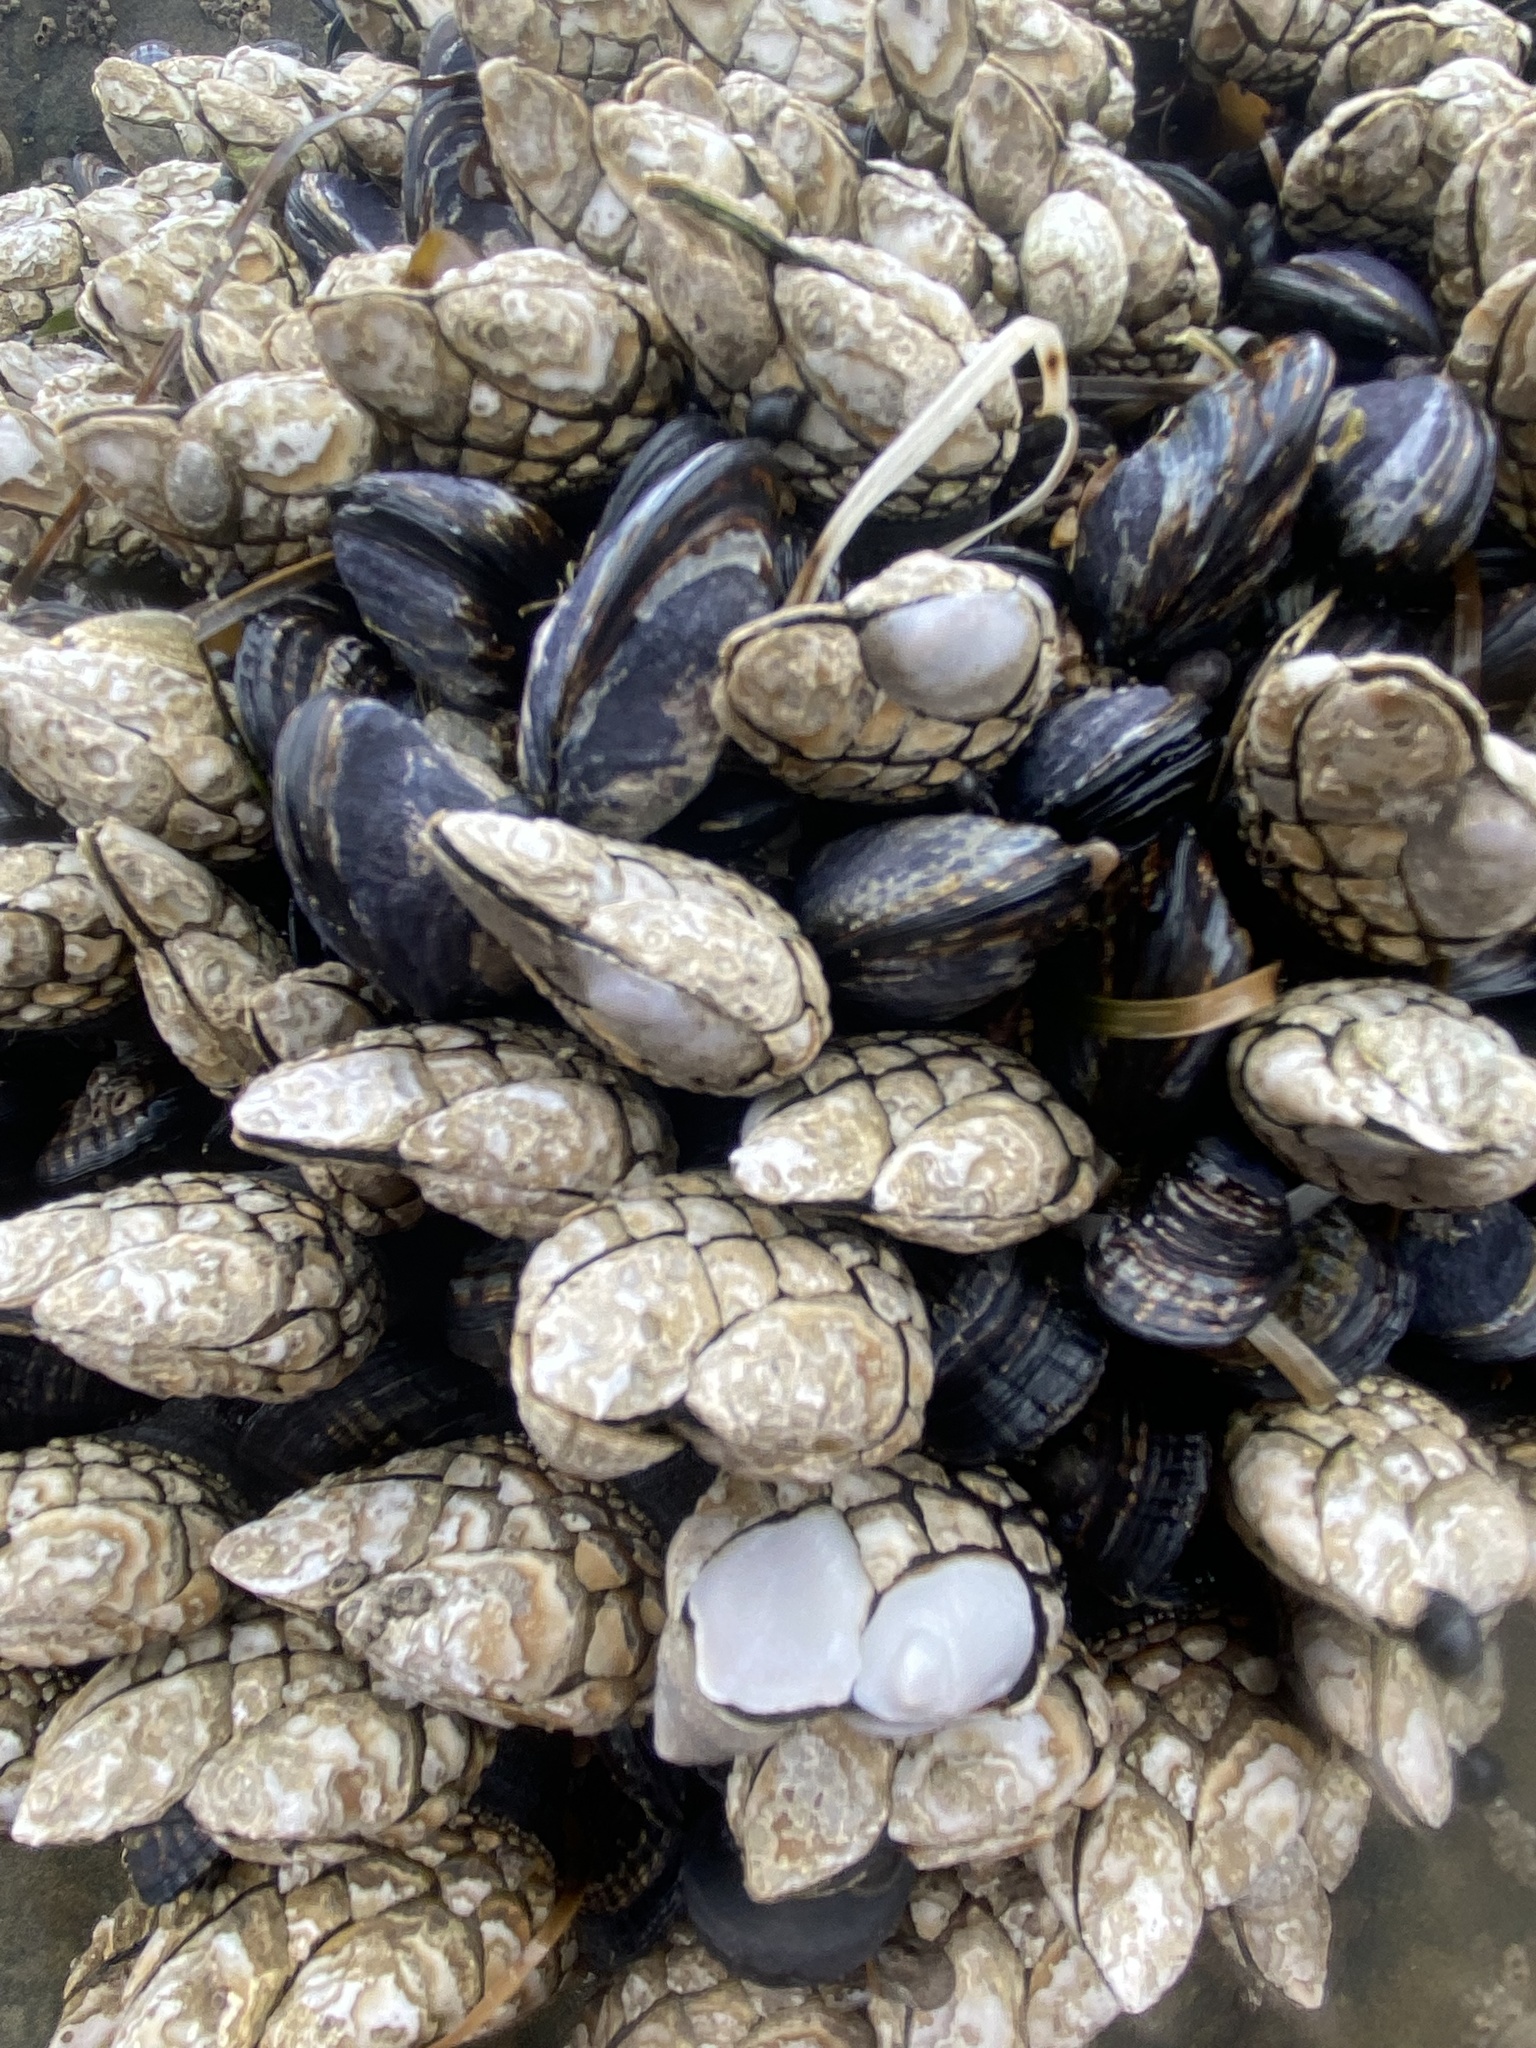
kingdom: Animalia
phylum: Arthropoda
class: Maxillopoda
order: Pedunculata
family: Pollicipedidae
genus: Pollicipes
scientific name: Pollicipes polymerus
